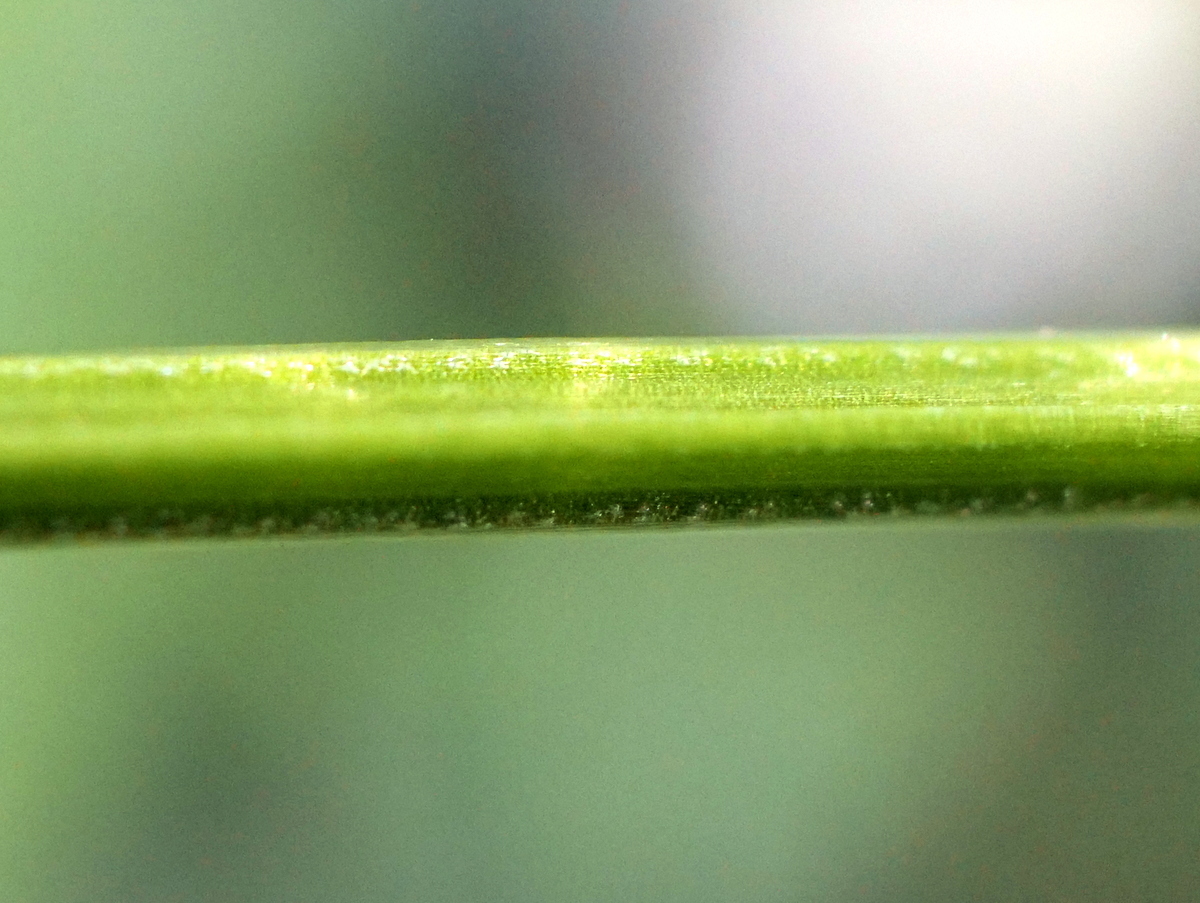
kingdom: Plantae
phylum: Tracheophyta
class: Magnoliopsida
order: Gentianales
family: Rubiaceae
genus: Galium
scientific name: Galium album
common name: White bedstraw
